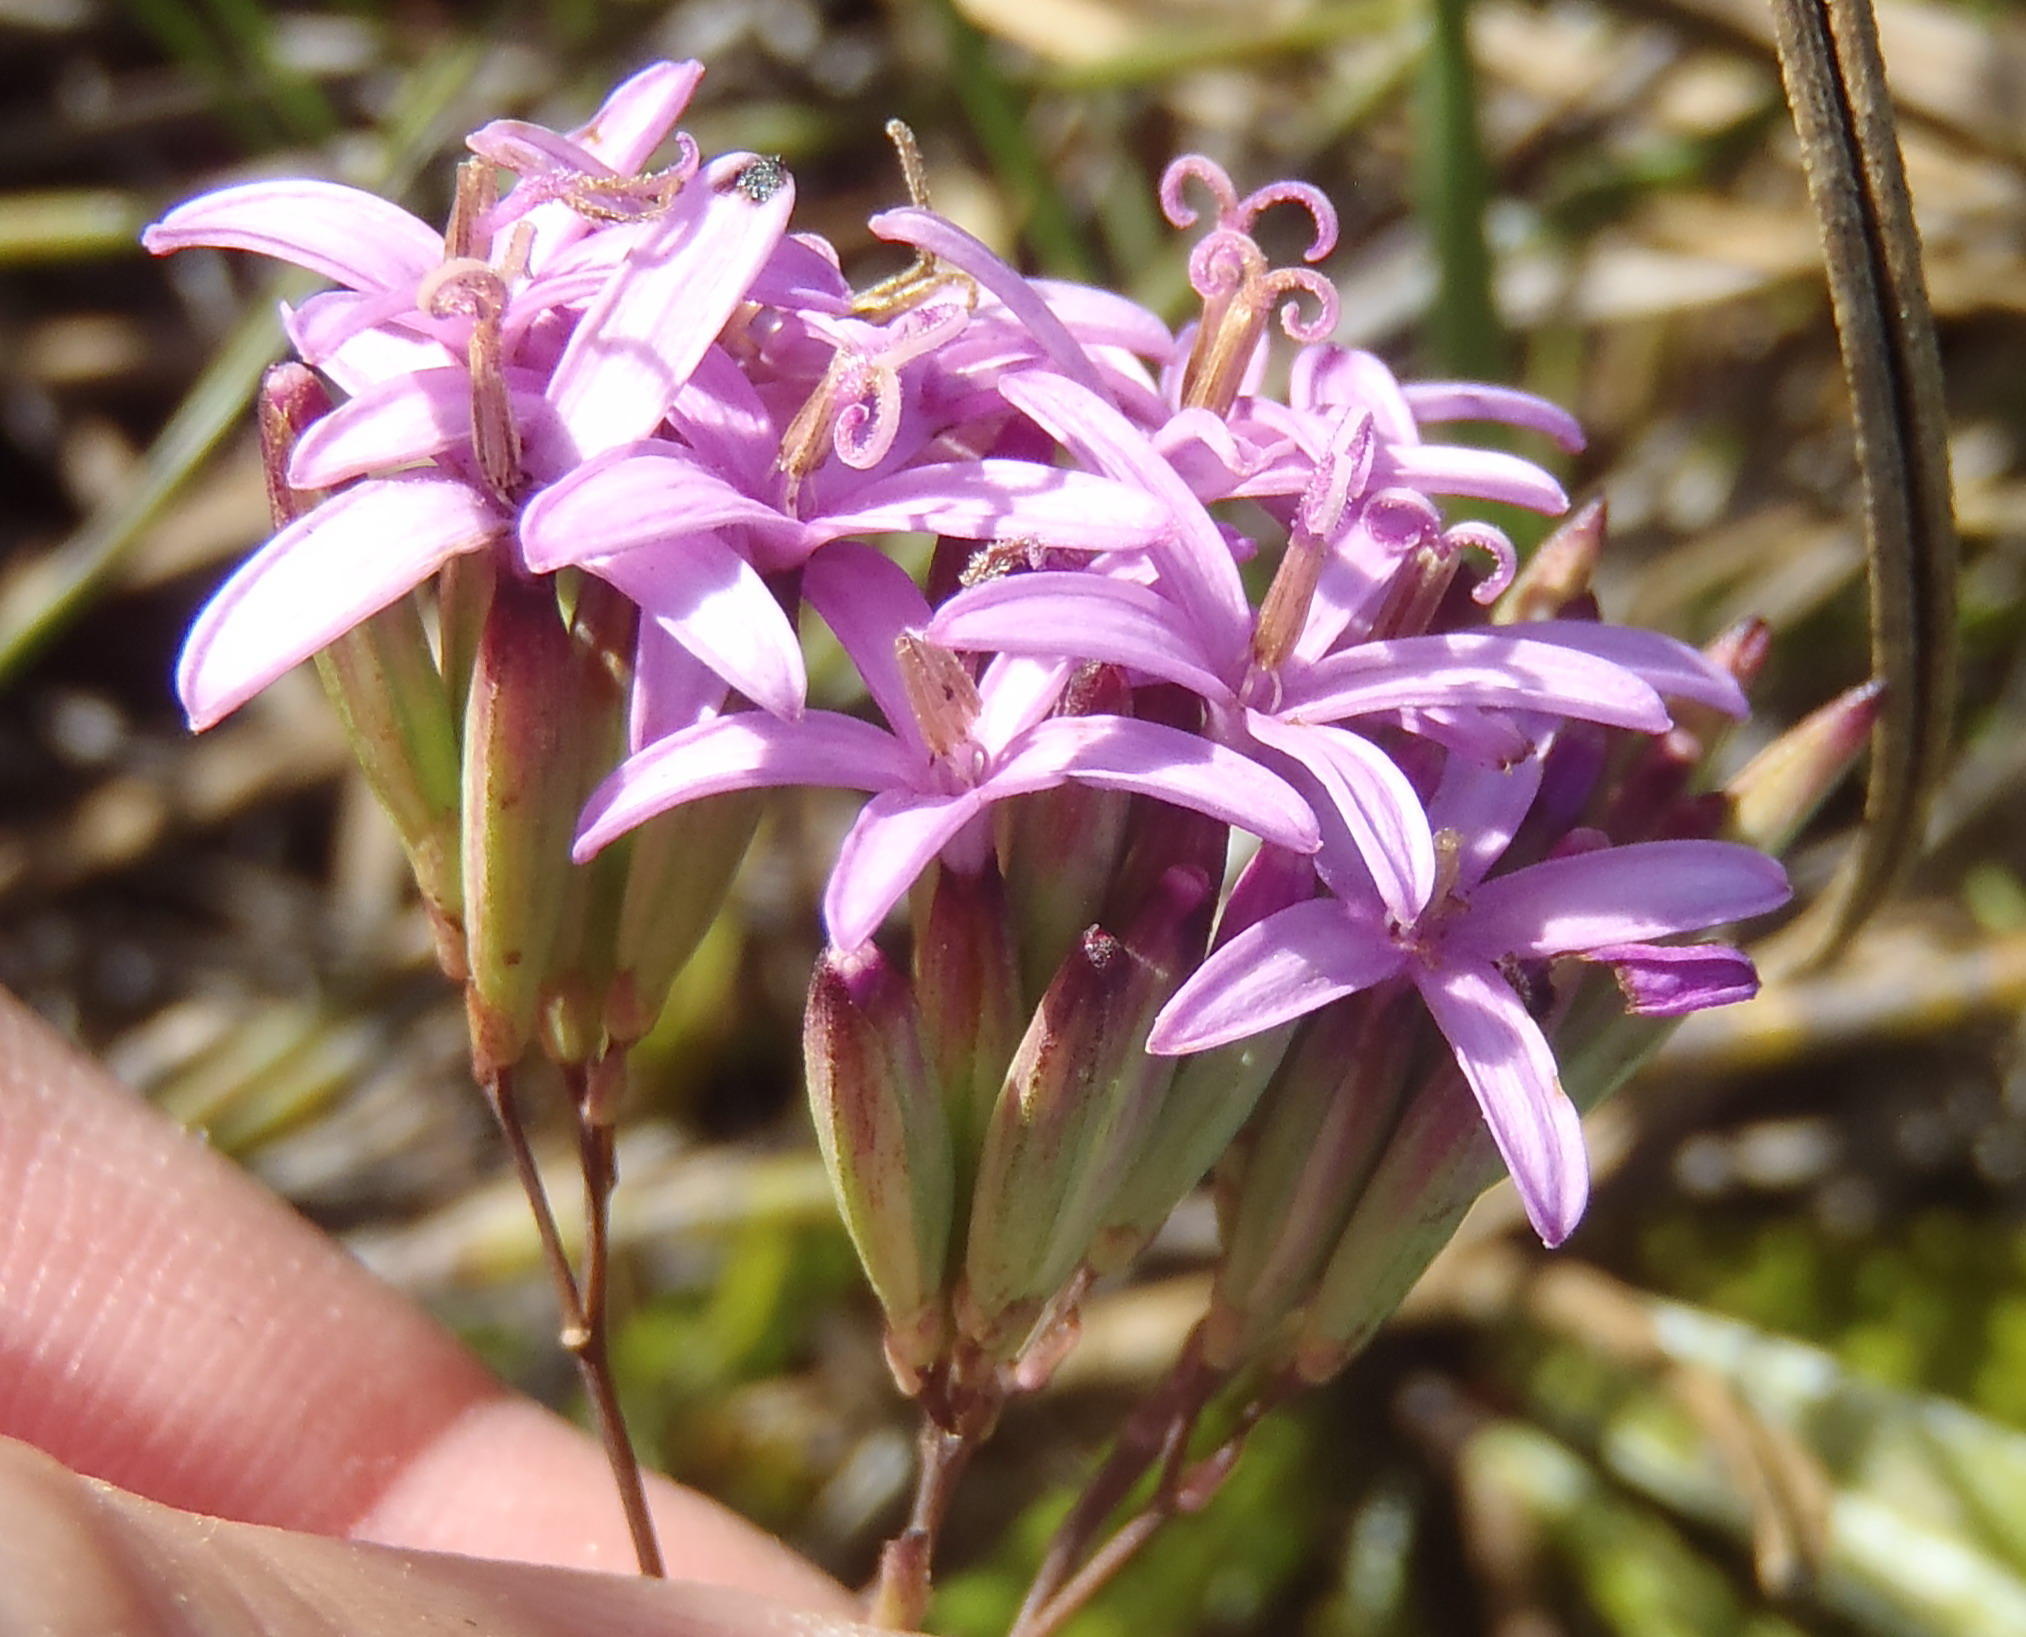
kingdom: Plantae
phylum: Tracheophyta
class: Magnoliopsida
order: Asterales
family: Asteraceae
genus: Corymbium
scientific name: Corymbium glabrum
